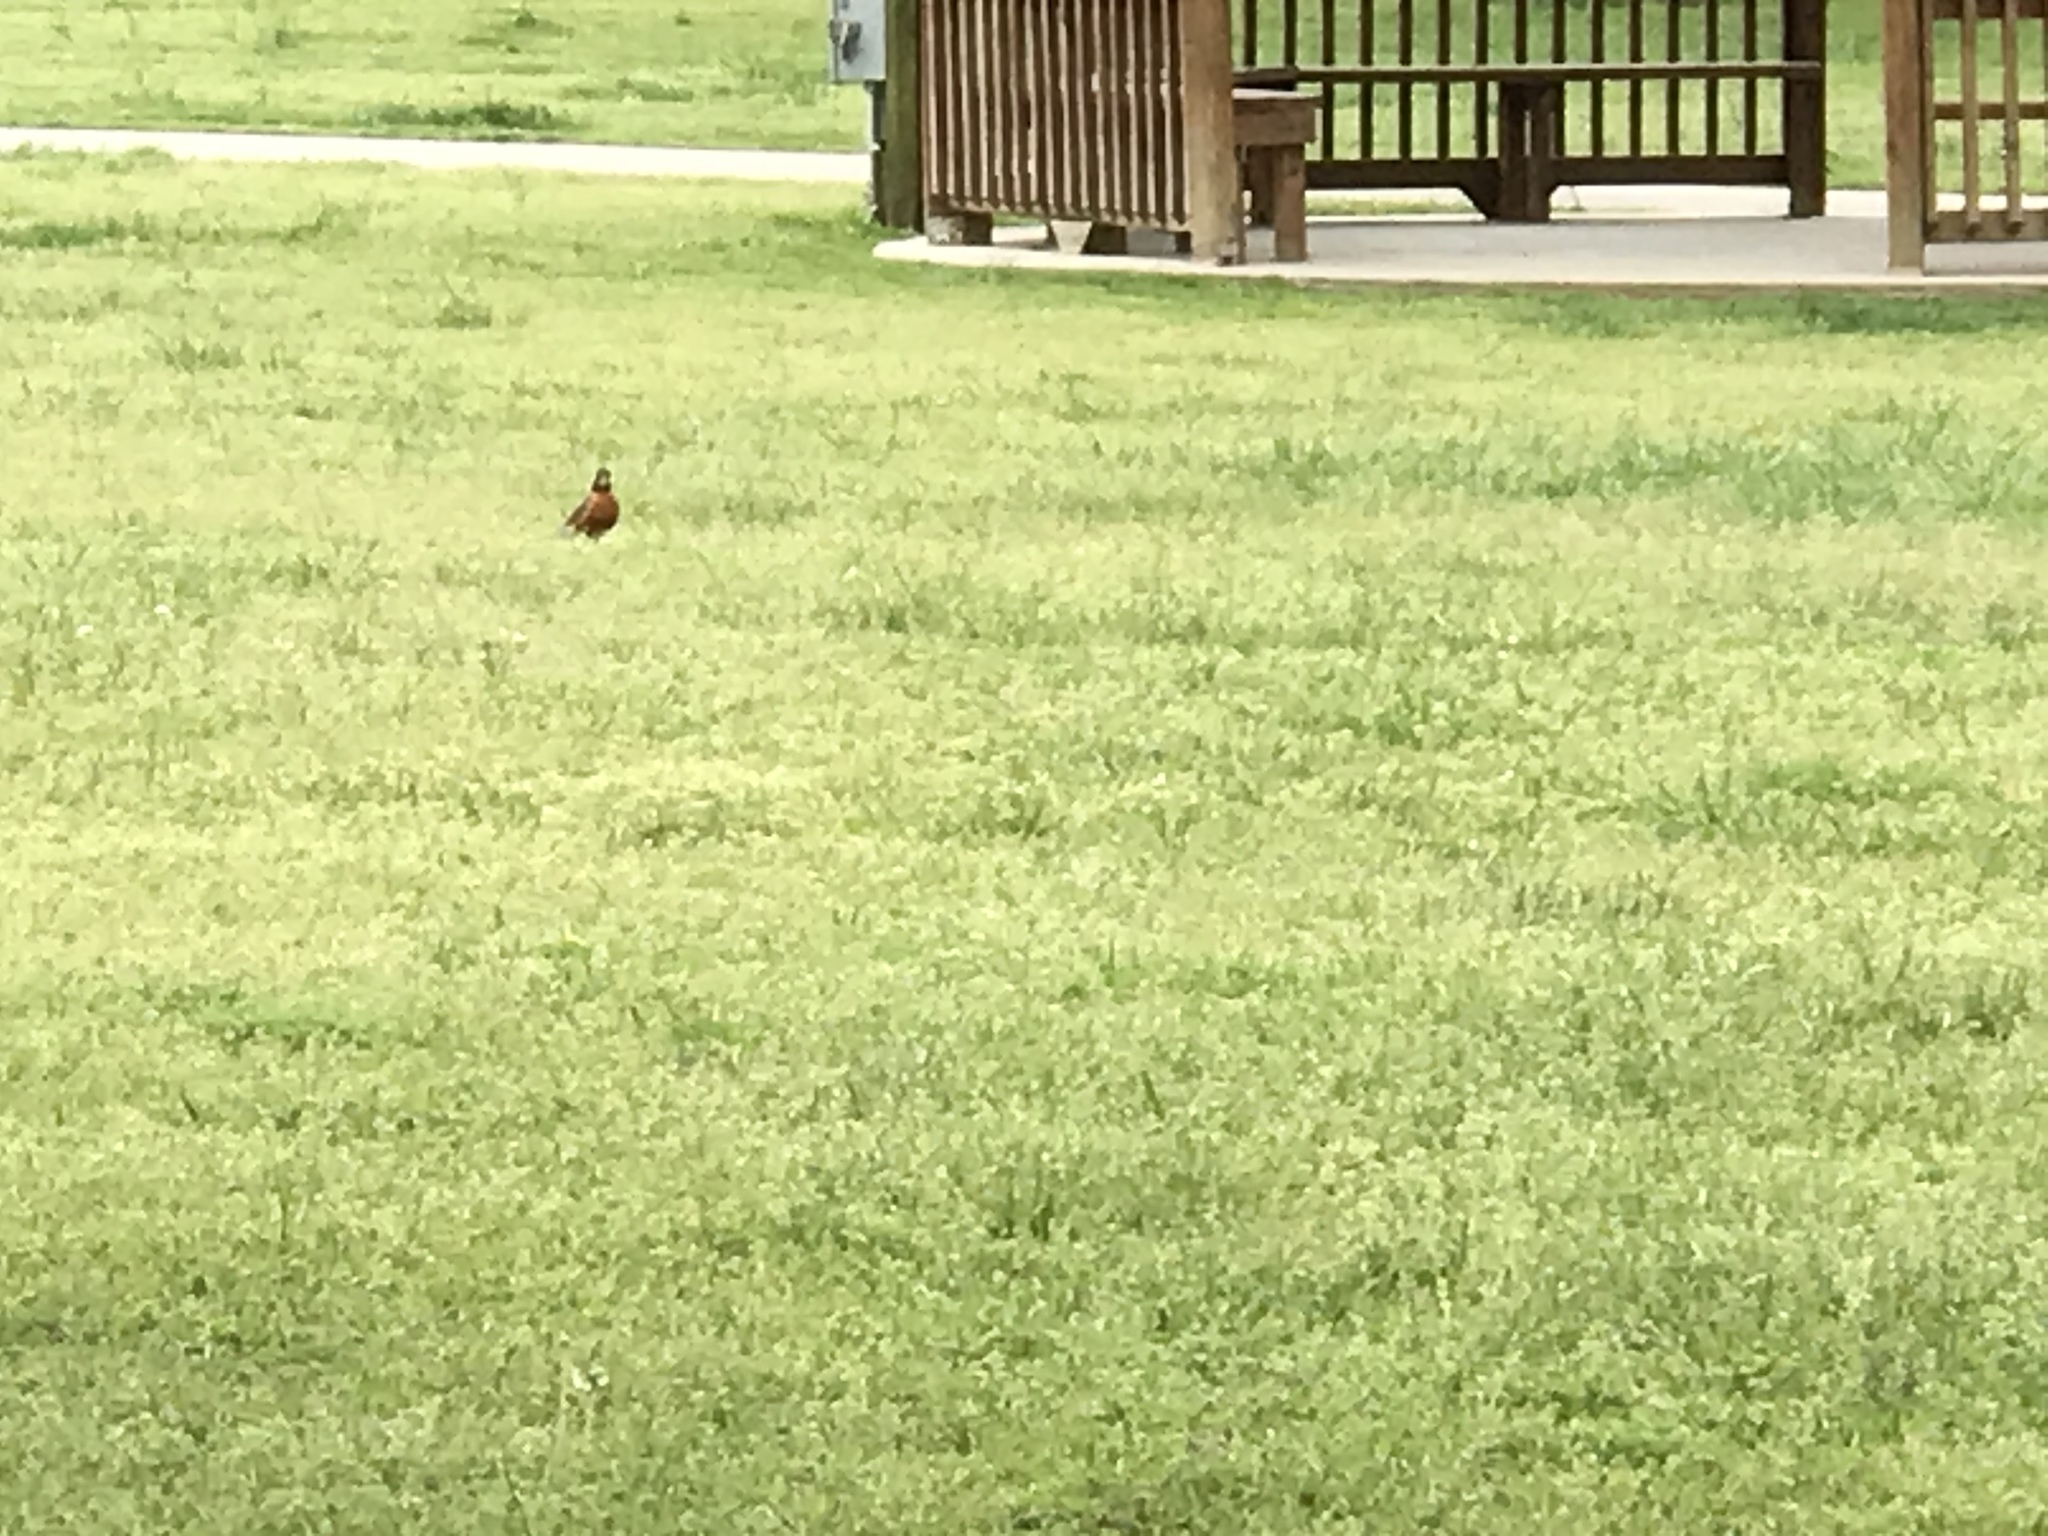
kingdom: Animalia
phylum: Chordata
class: Aves
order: Passeriformes
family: Turdidae
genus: Turdus
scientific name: Turdus migratorius
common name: American robin
